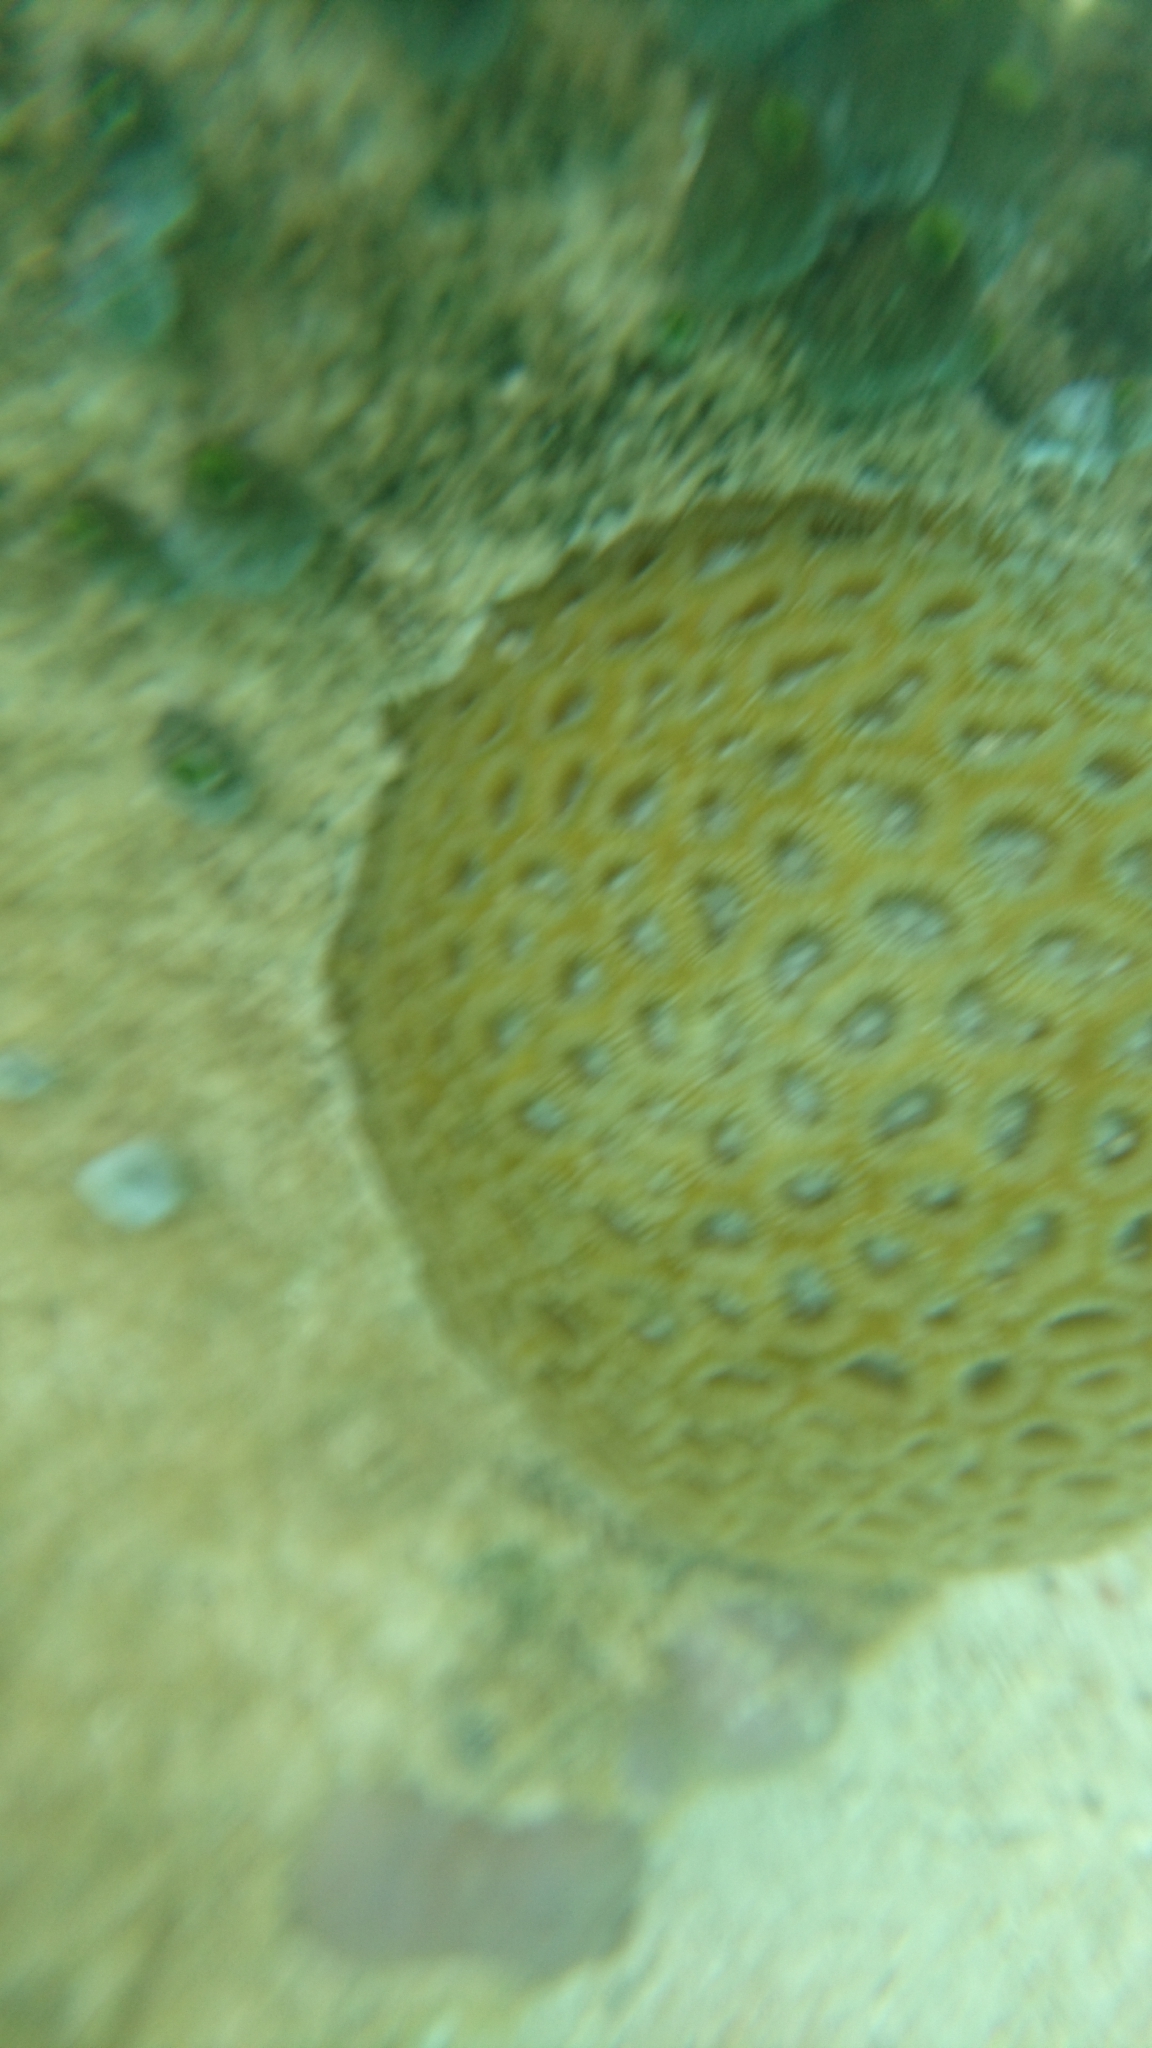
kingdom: Animalia
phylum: Chordata
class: Ascidiacea
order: Aplousobranchia
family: Didemnidae
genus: Didemnum
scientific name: Didemnum molle
